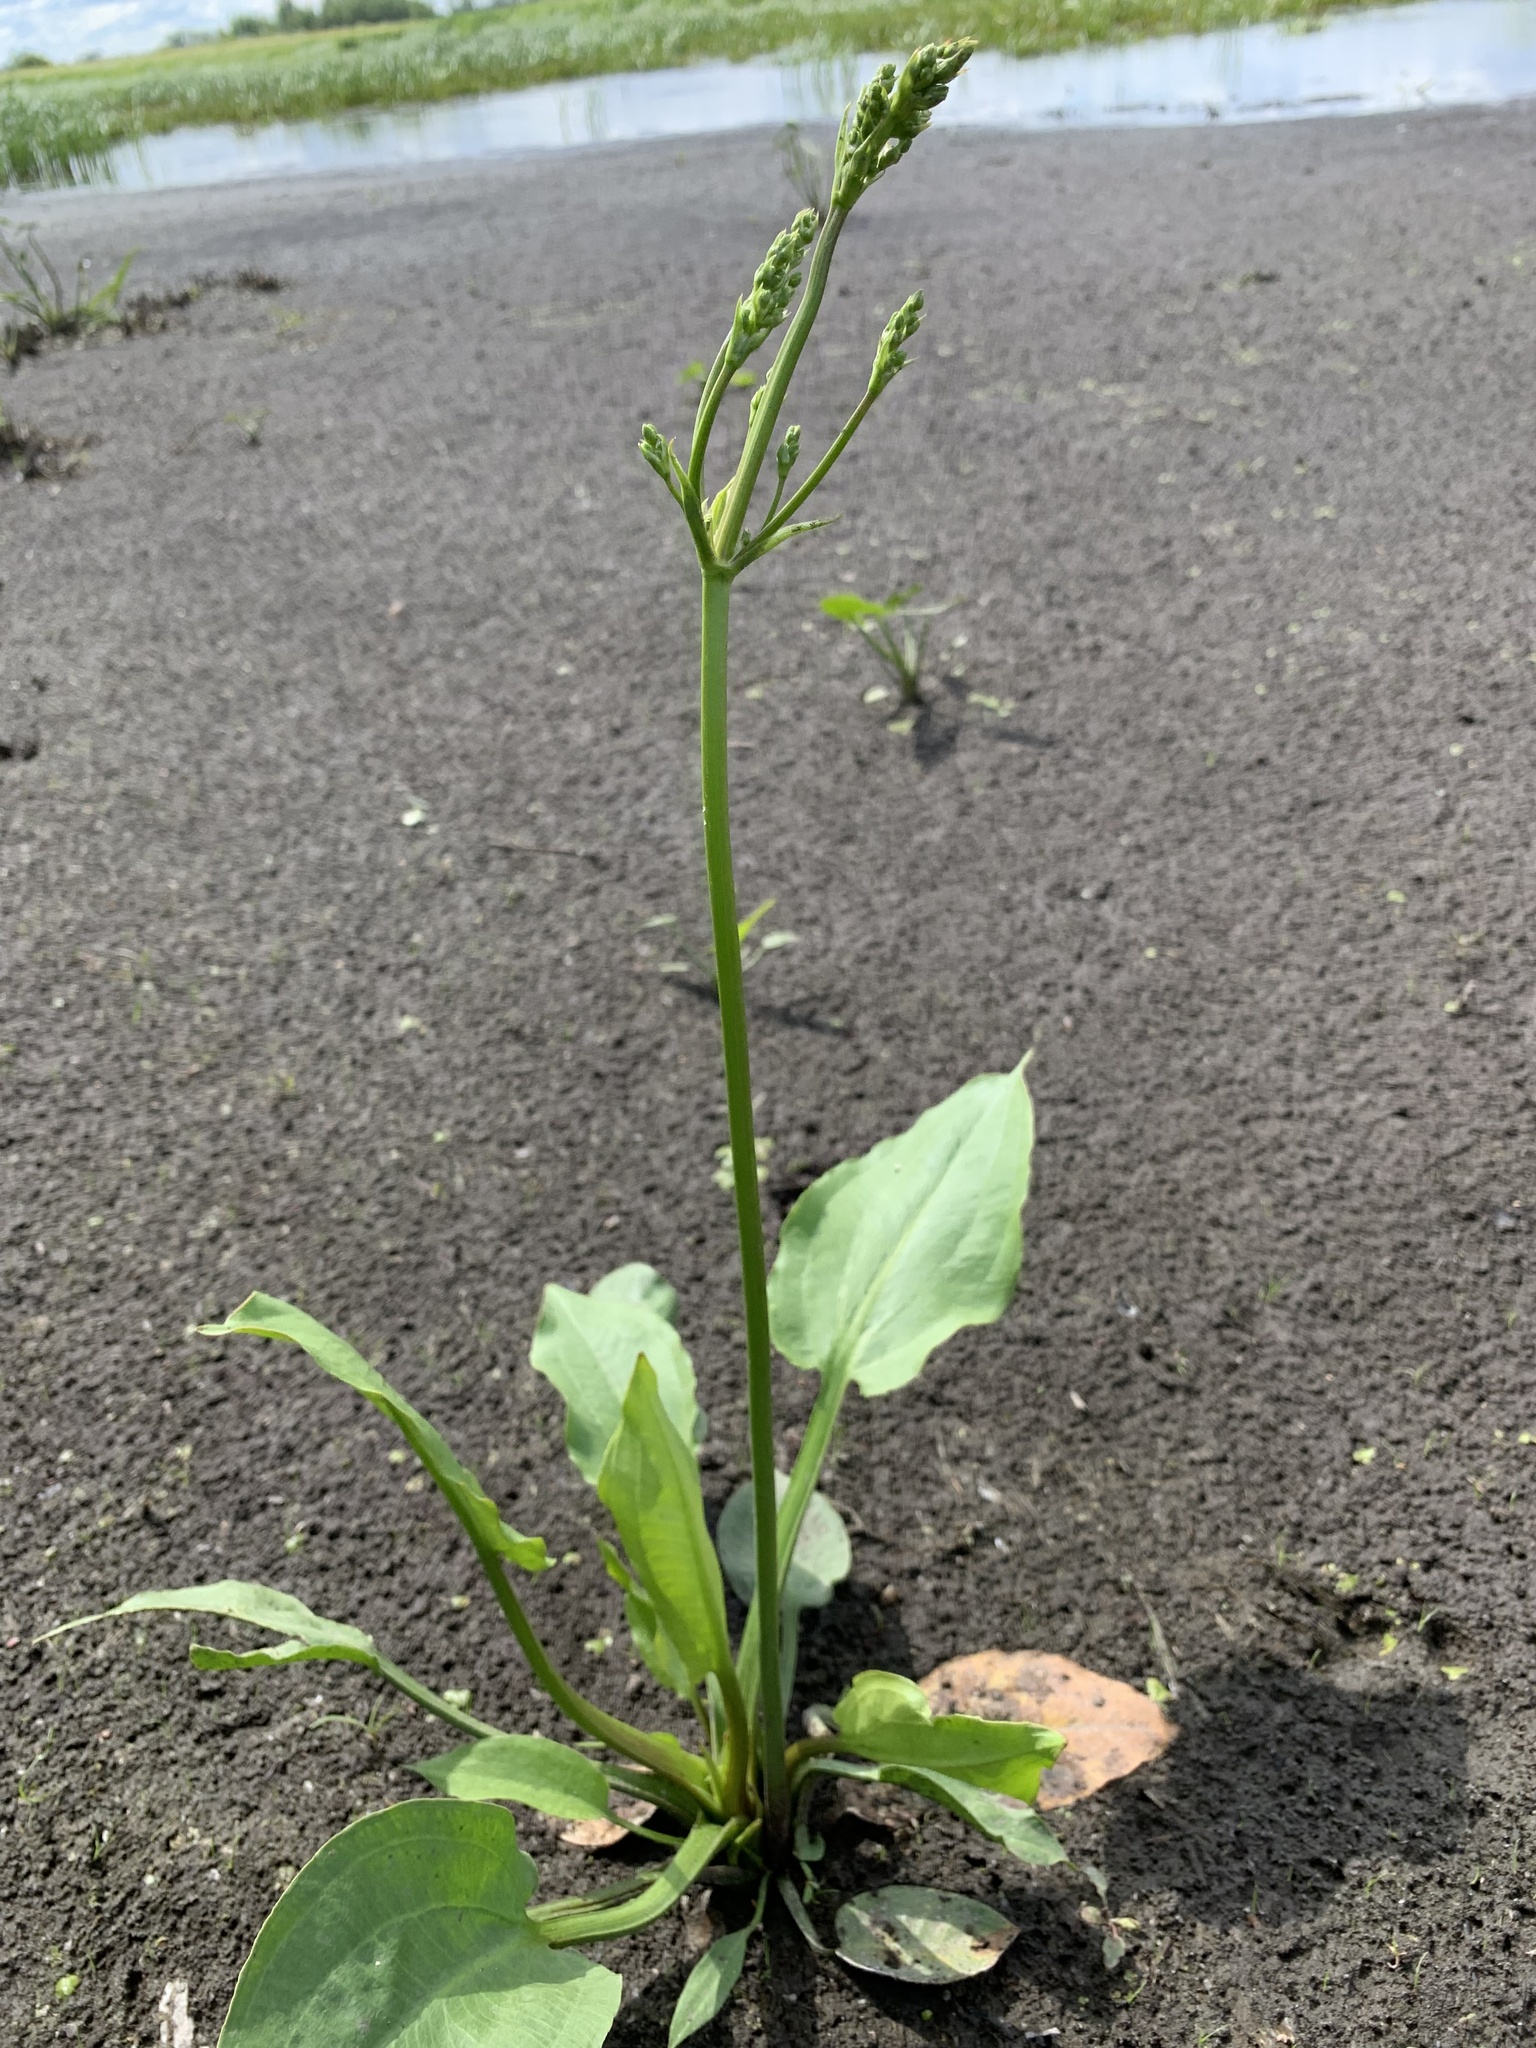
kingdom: Plantae
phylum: Tracheophyta
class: Liliopsida
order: Alismatales
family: Alismataceae
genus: Alisma
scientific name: Alisma plantago-aquatica
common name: Water-plantain
